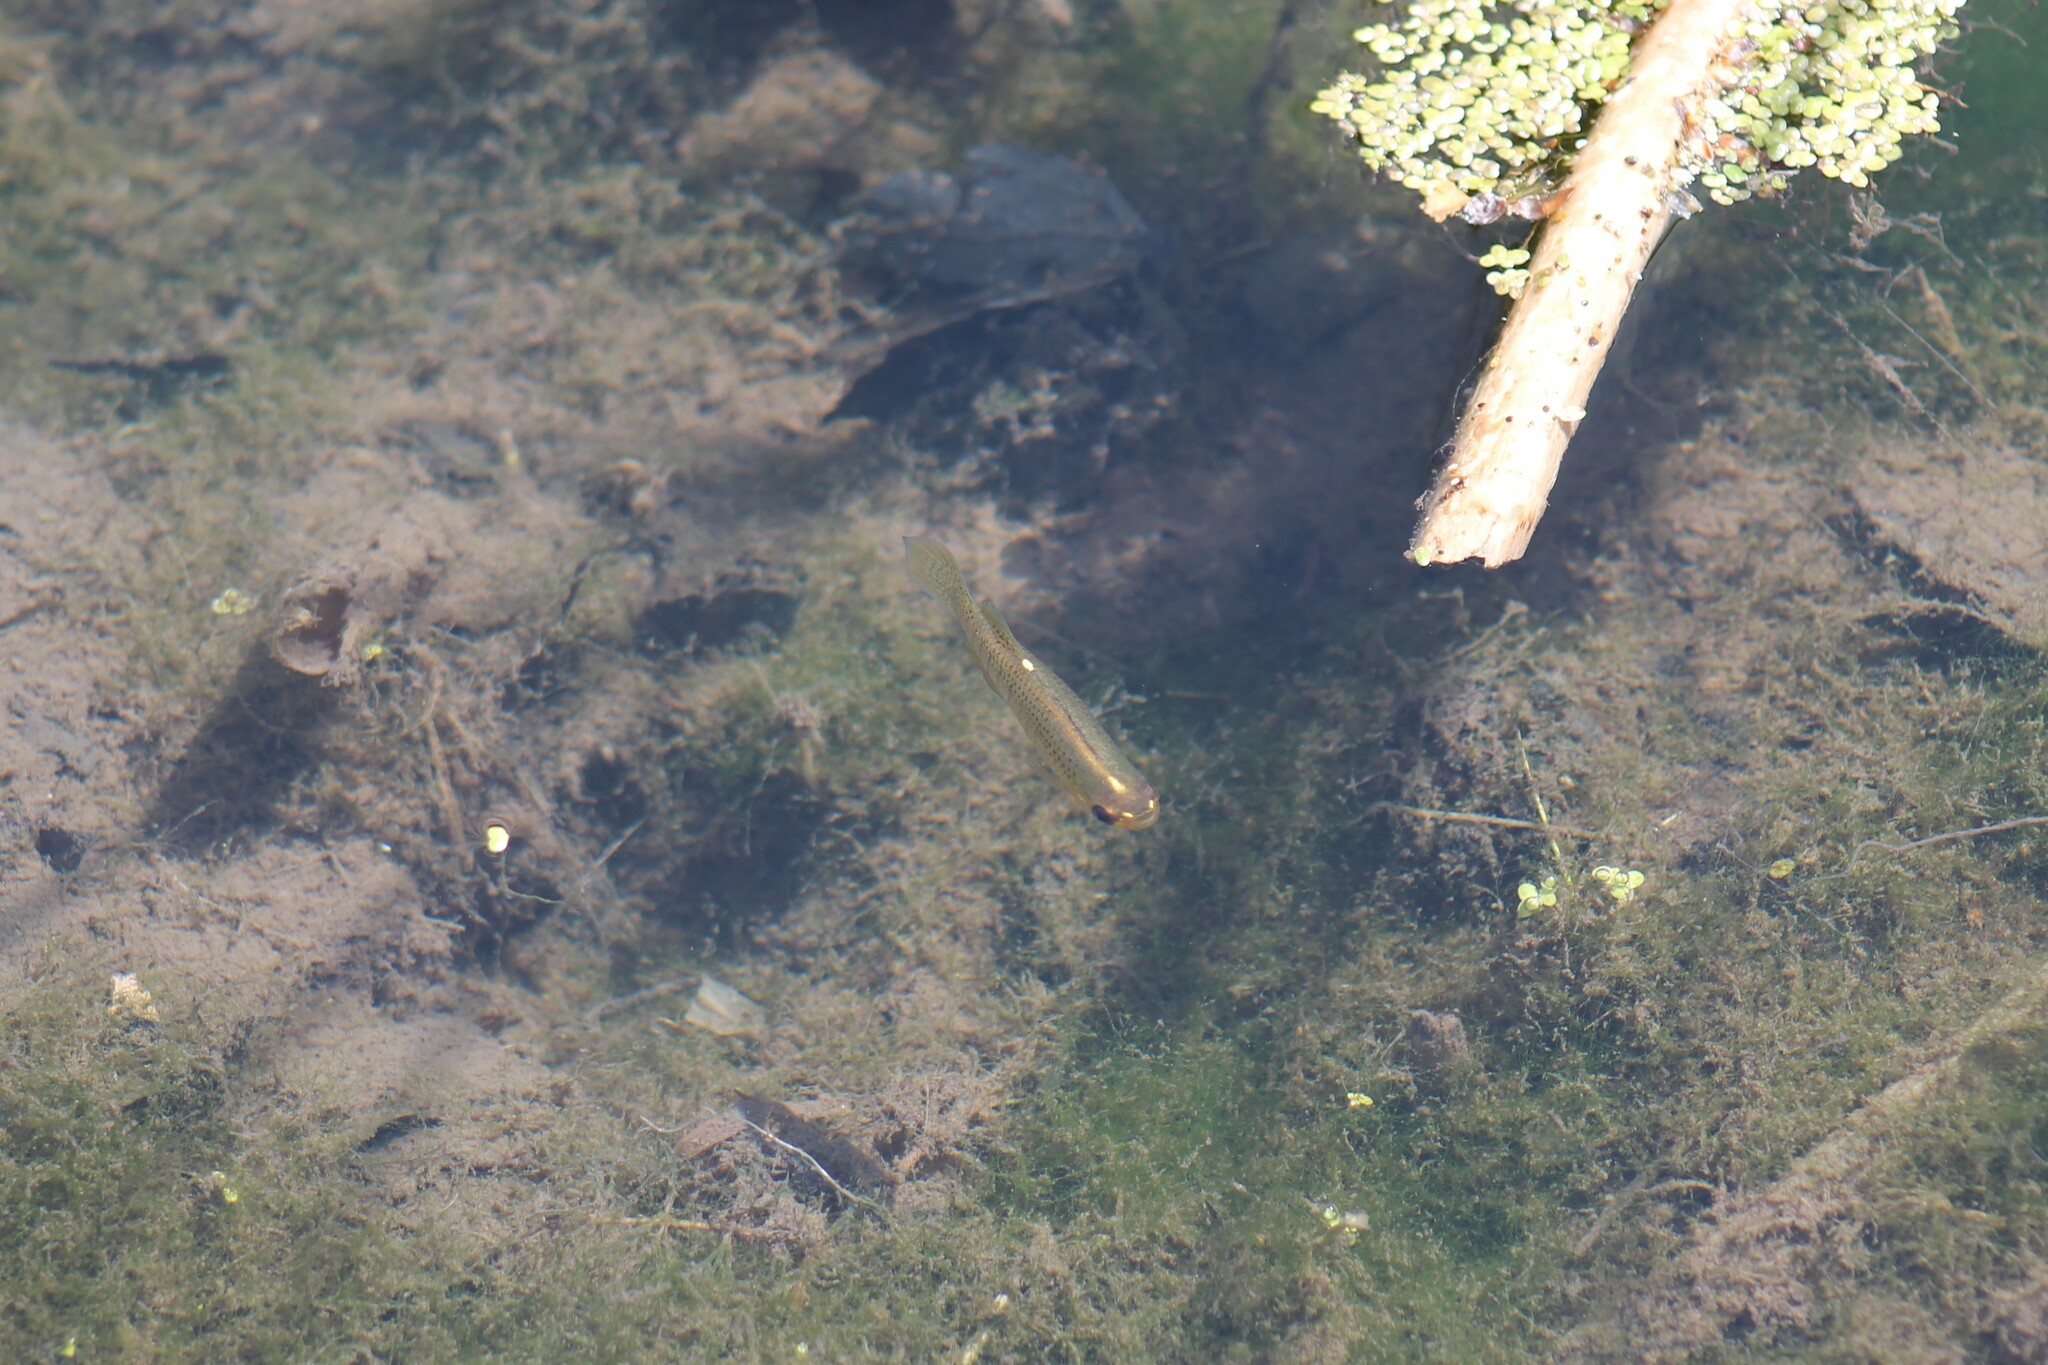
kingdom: Animalia
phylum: Chordata
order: Cyprinodontiformes
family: Fundulidae
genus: Fundulus
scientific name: Fundulus dispar
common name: Starhead topminnow
